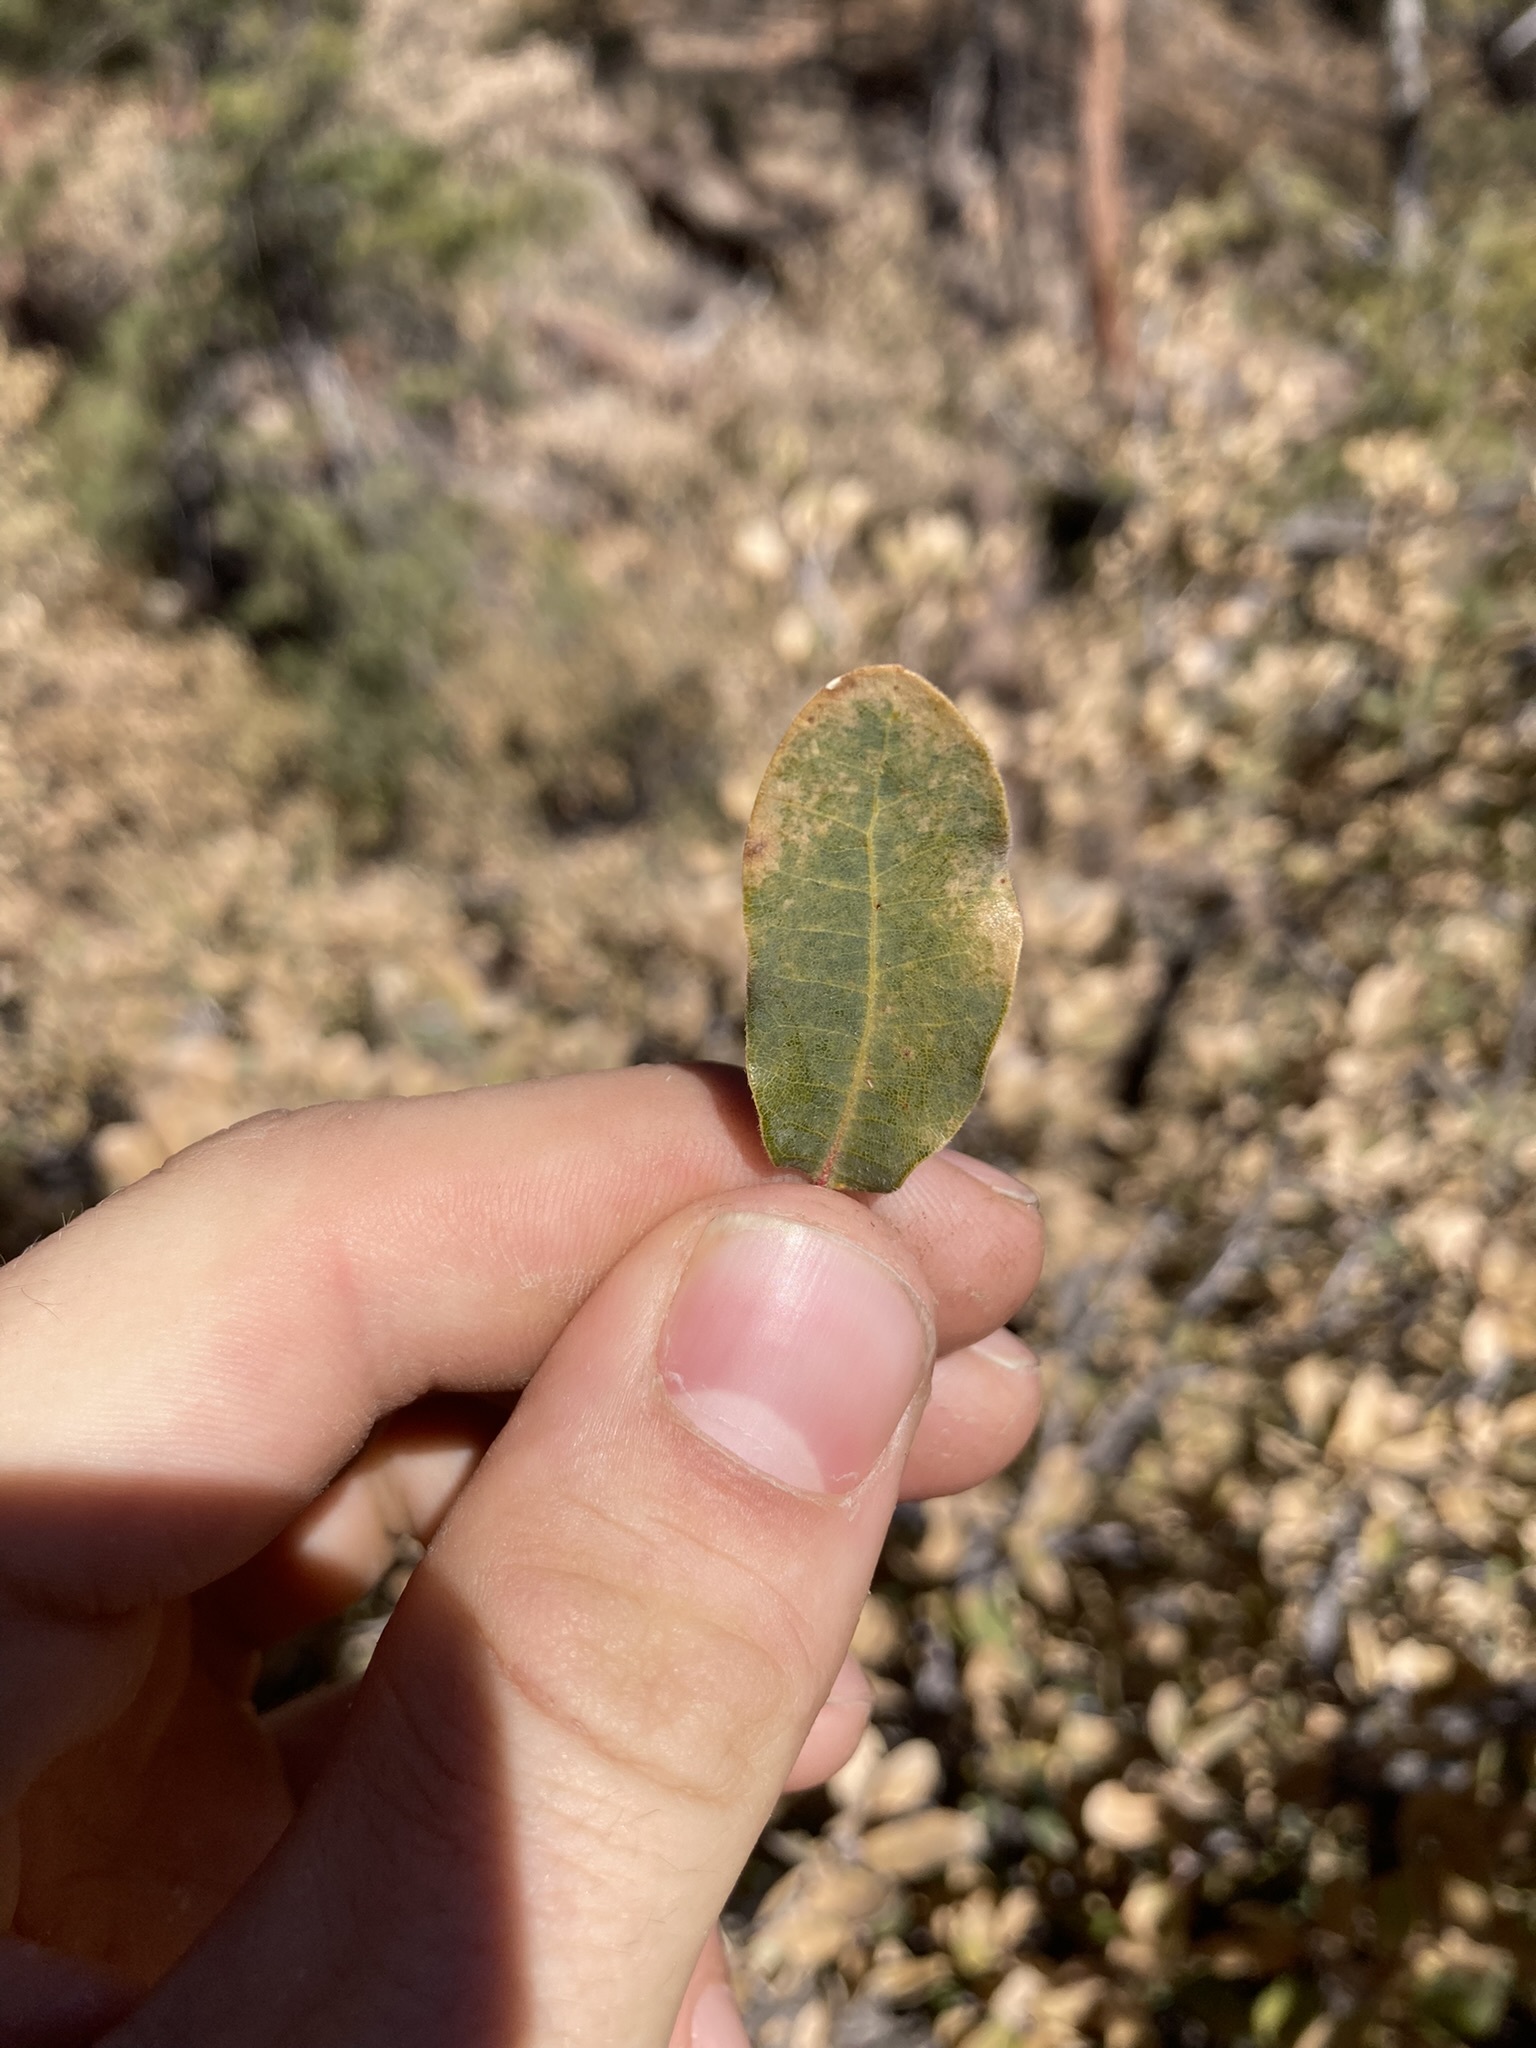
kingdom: Plantae
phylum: Tracheophyta
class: Magnoliopsida
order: Fagales
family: Fagaceae
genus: Quercus
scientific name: Quercus grisea
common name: Gray oak
